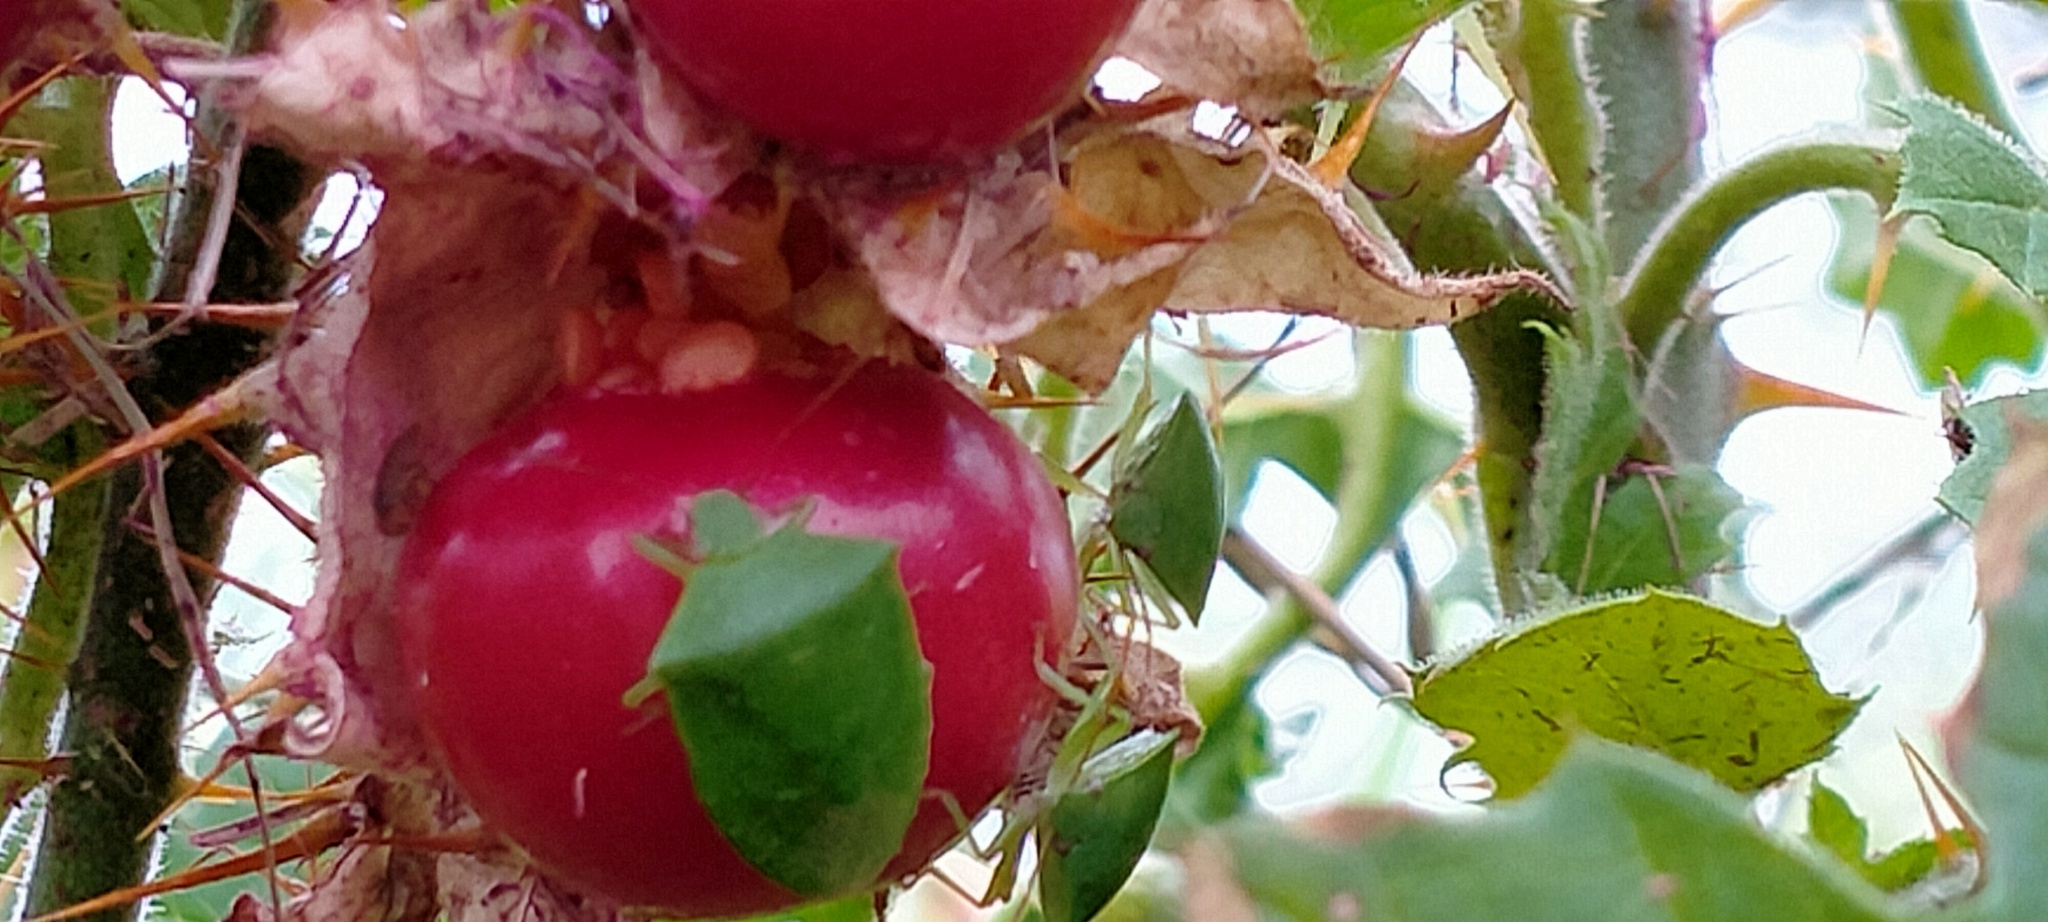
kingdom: Plantae
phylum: Tracheophyta
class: Magnoliopsida
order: Solanales
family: Solanaceae
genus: Solanum
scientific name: Solanum sisymbriifolium
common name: Red buffalo-bur
